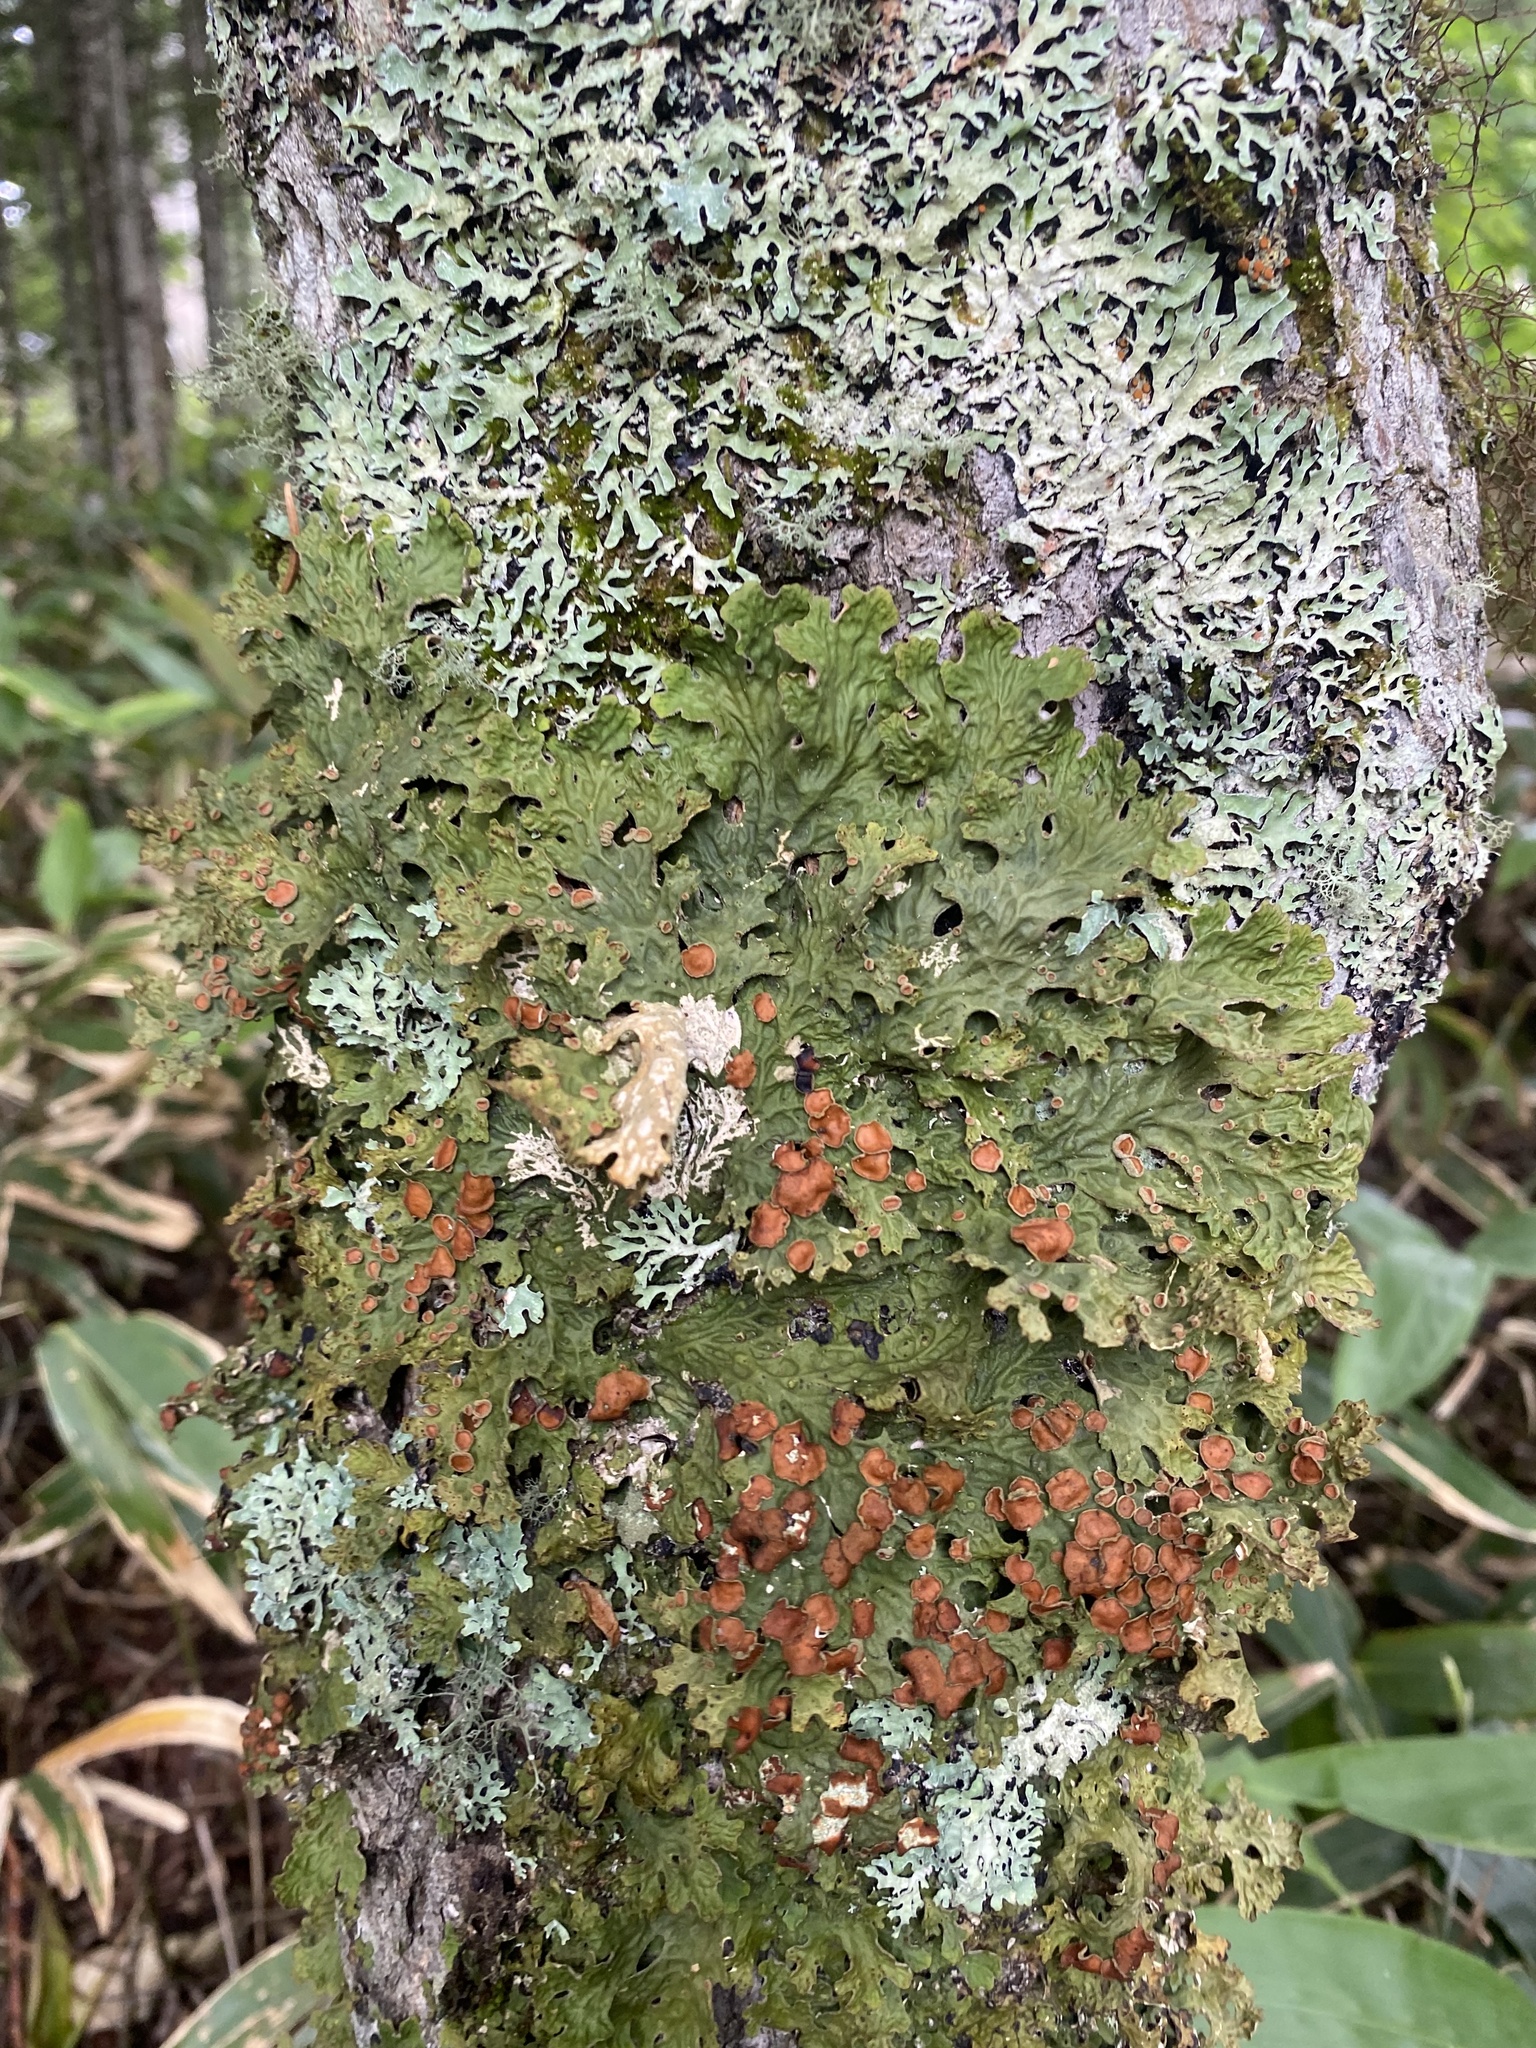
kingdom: Fungi
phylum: Ascomycota
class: Lecanoromycetes
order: Peltigerales
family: Lobariaceae
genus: Lobaria
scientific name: Lobaria pulmonaria
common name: Lungwort
